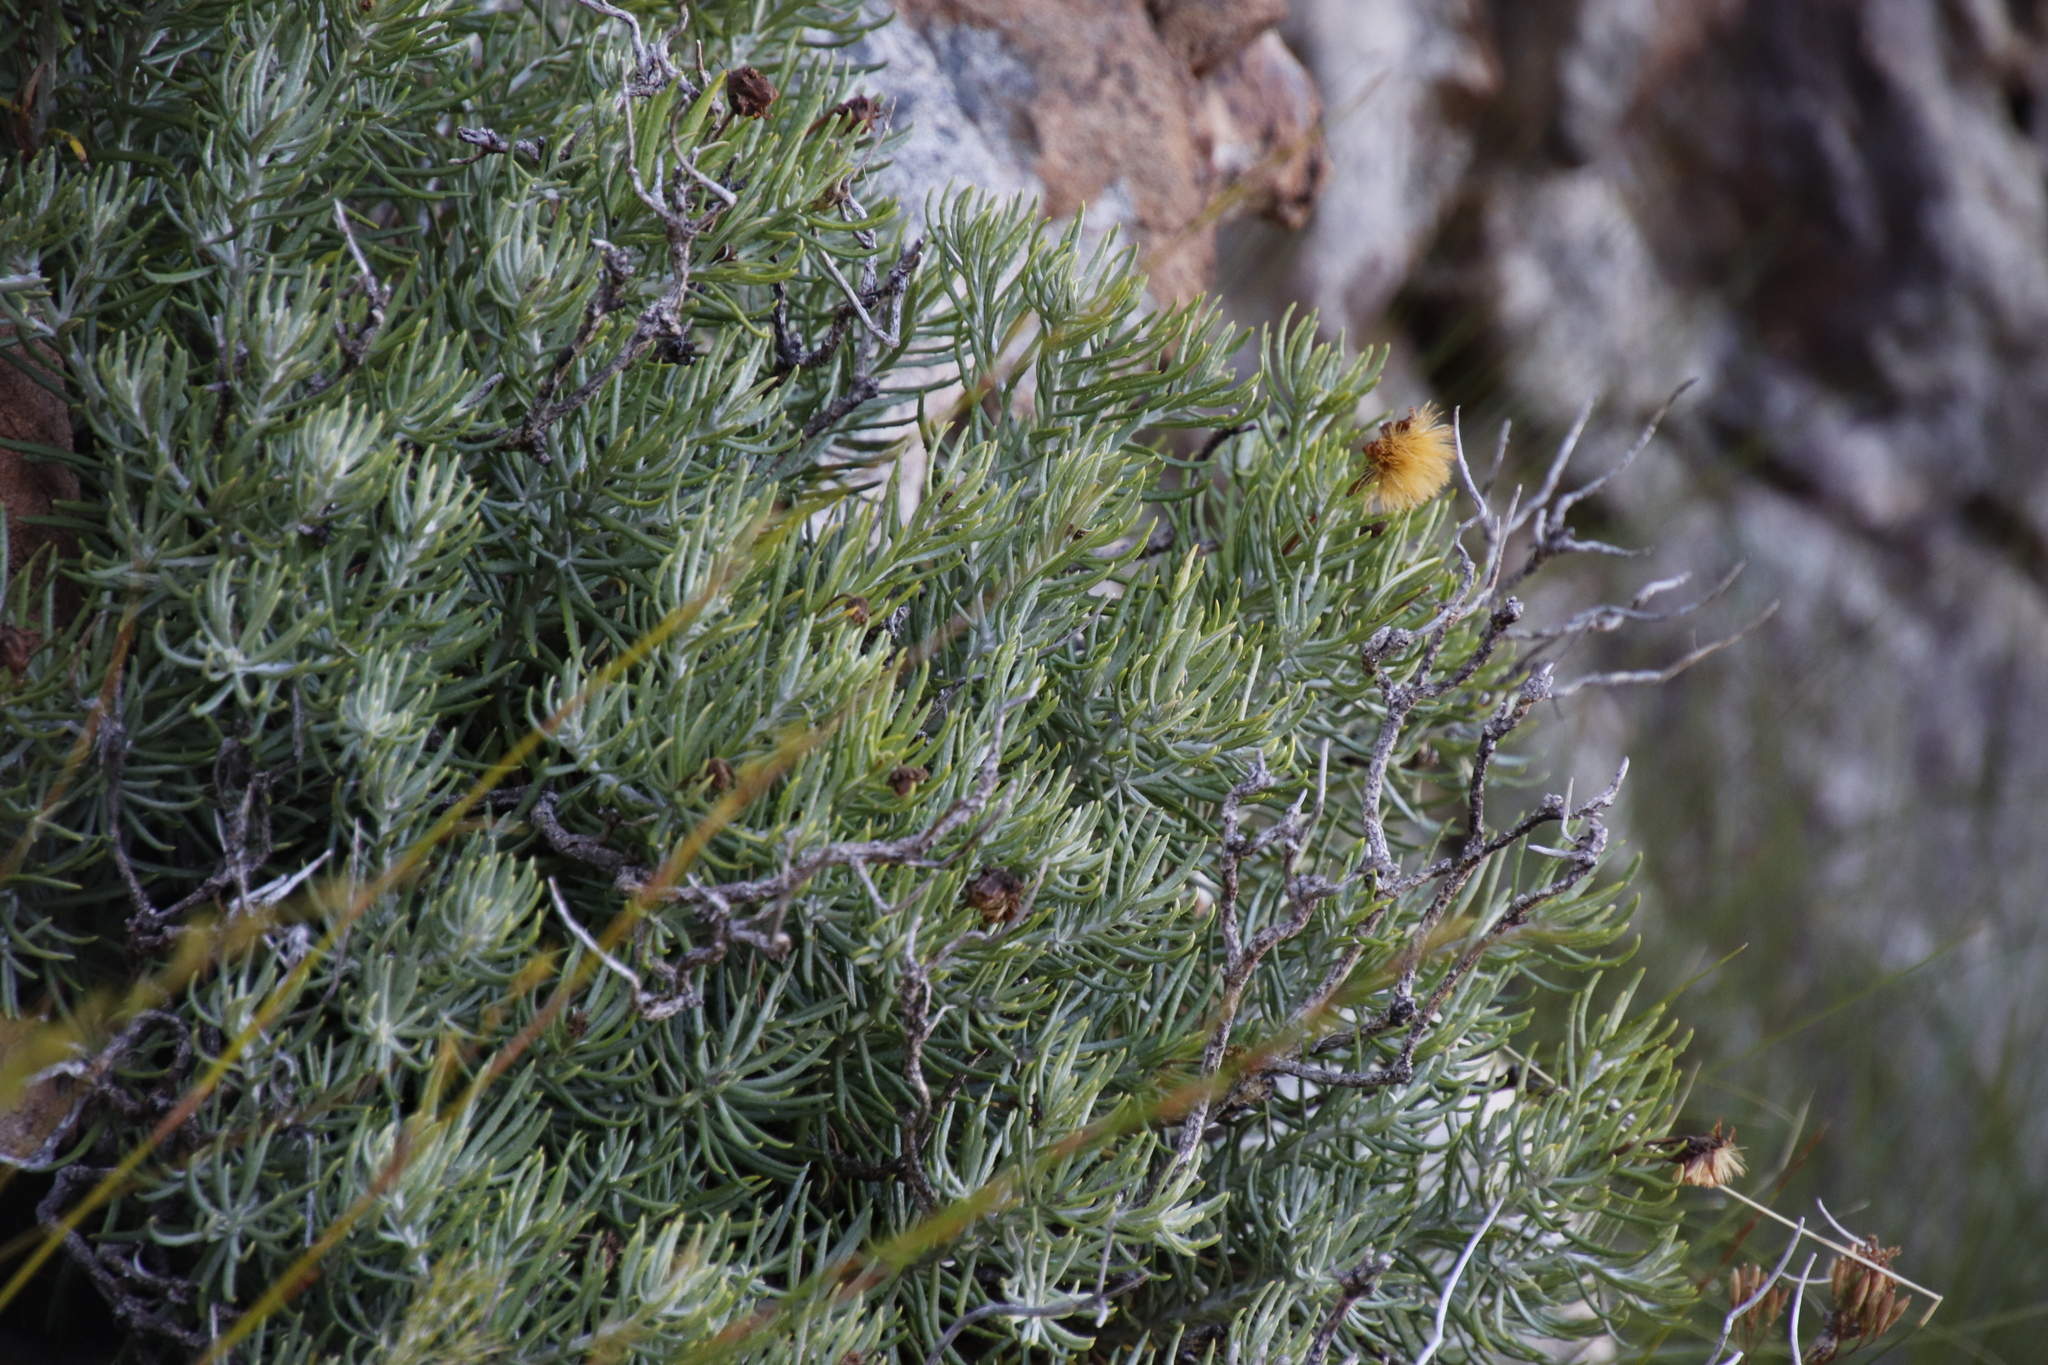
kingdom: Plantae
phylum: Tracheophyta
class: Magnoliopsida
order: Asterales
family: Asteraceae
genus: Heterolepis
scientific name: Heterolepis aliena
